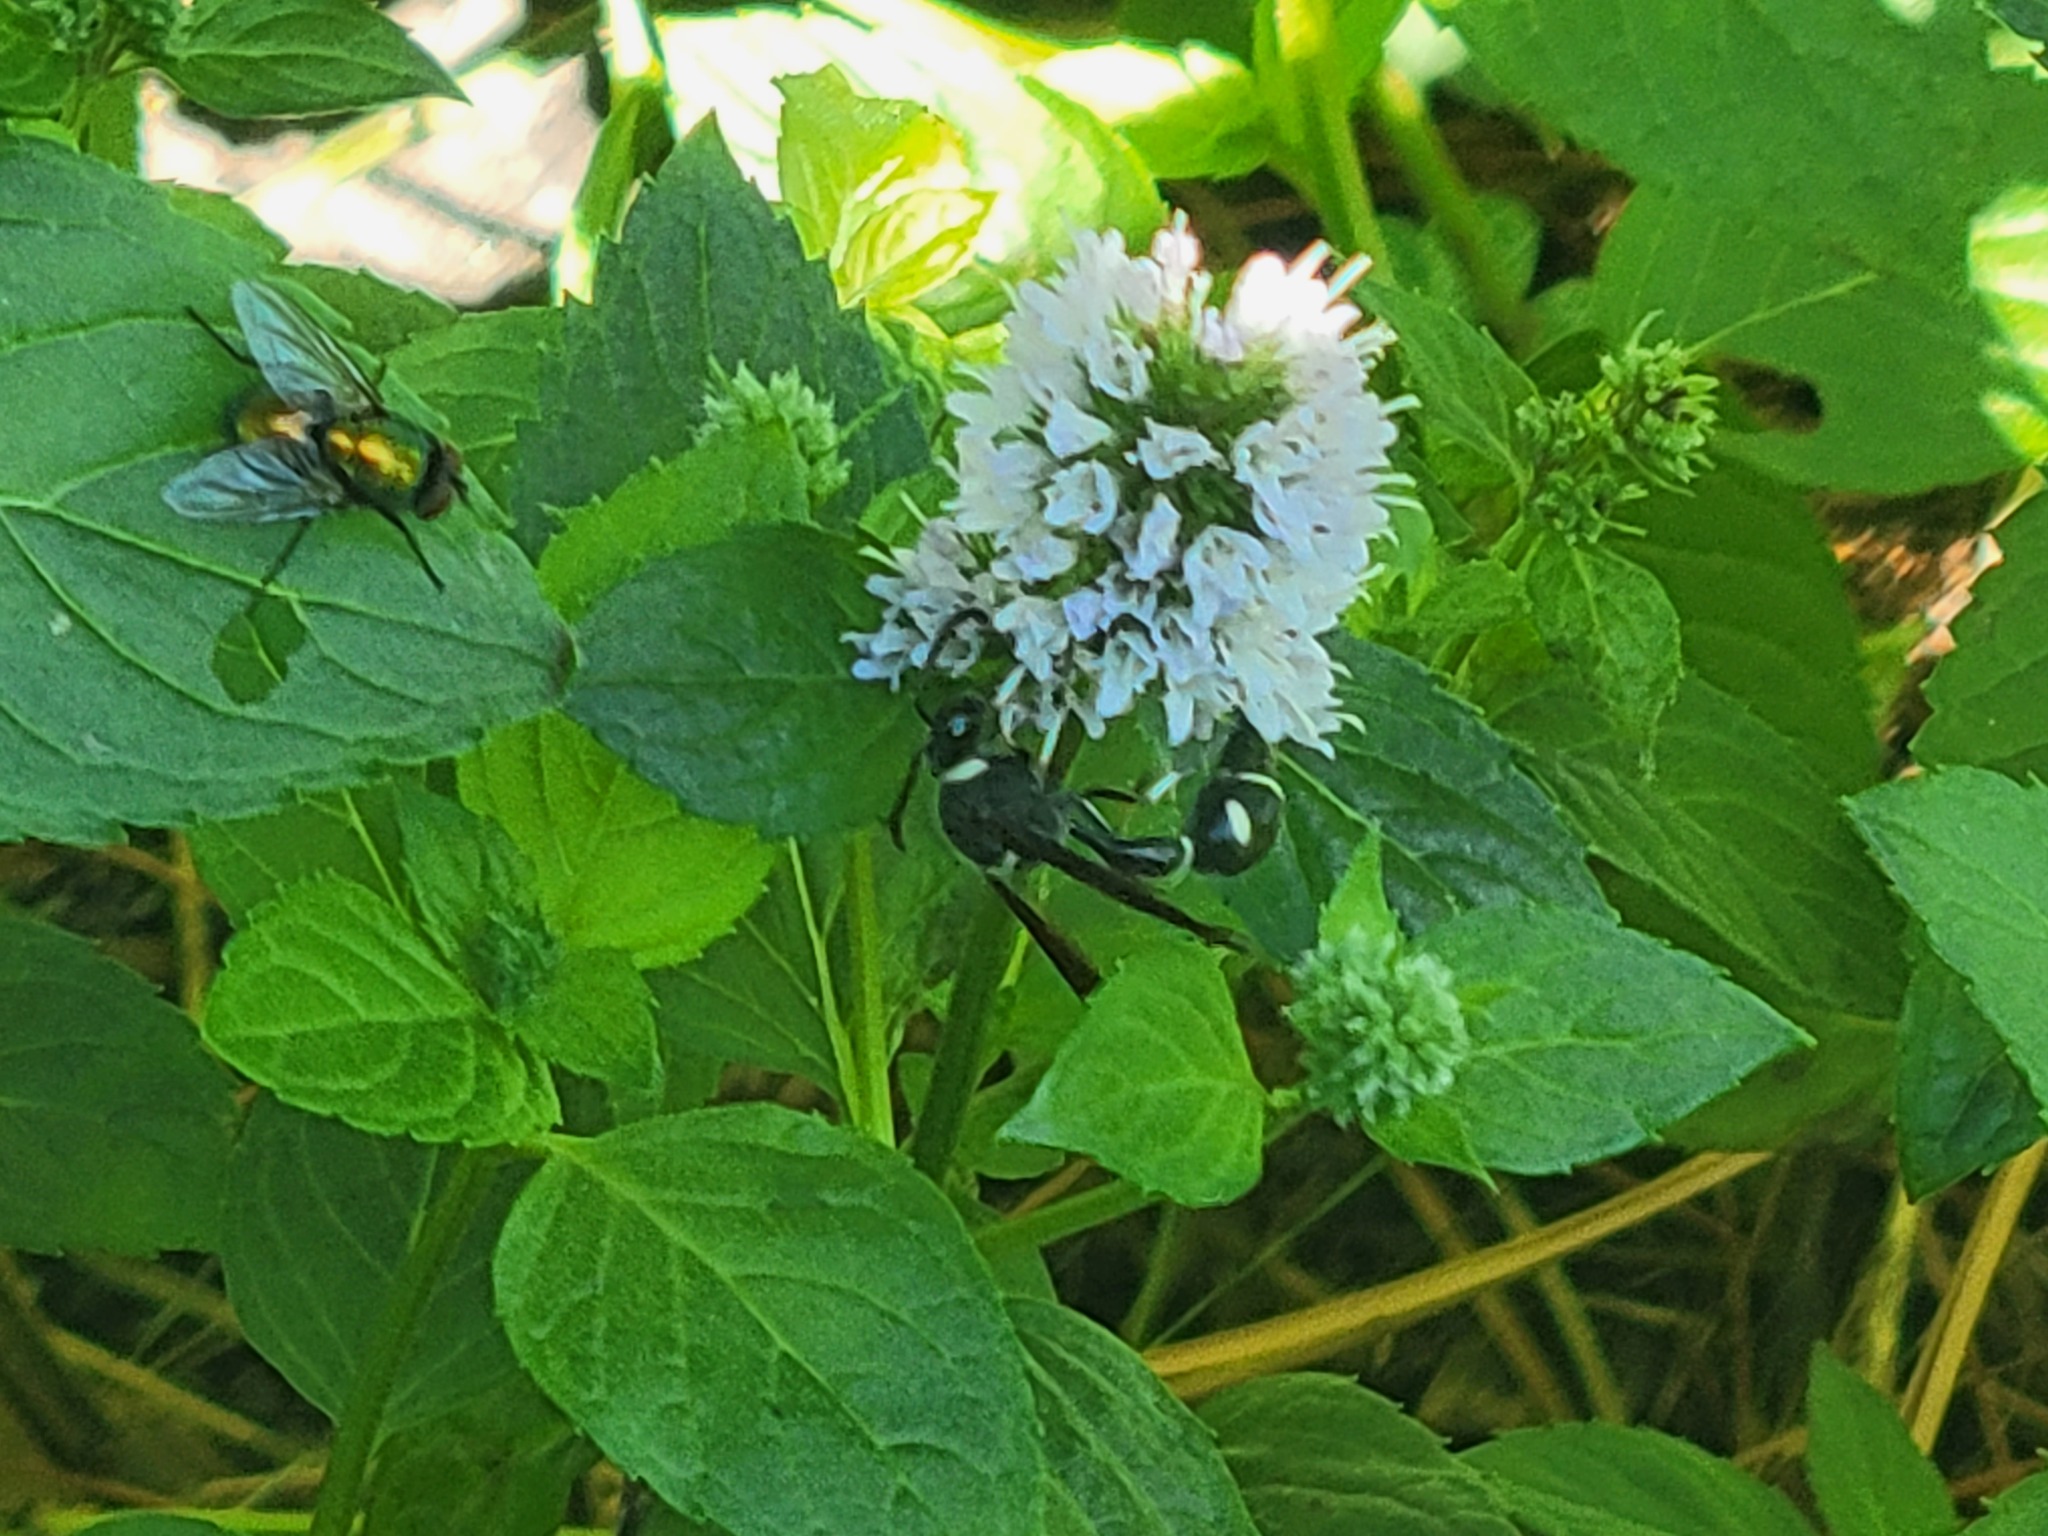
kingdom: Animalia
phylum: Arthropoda
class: Insecta
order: Hymenoptera
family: Vespidae
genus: Eumenes
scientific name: Eumenes fraternus
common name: Fraternal potter wasp
